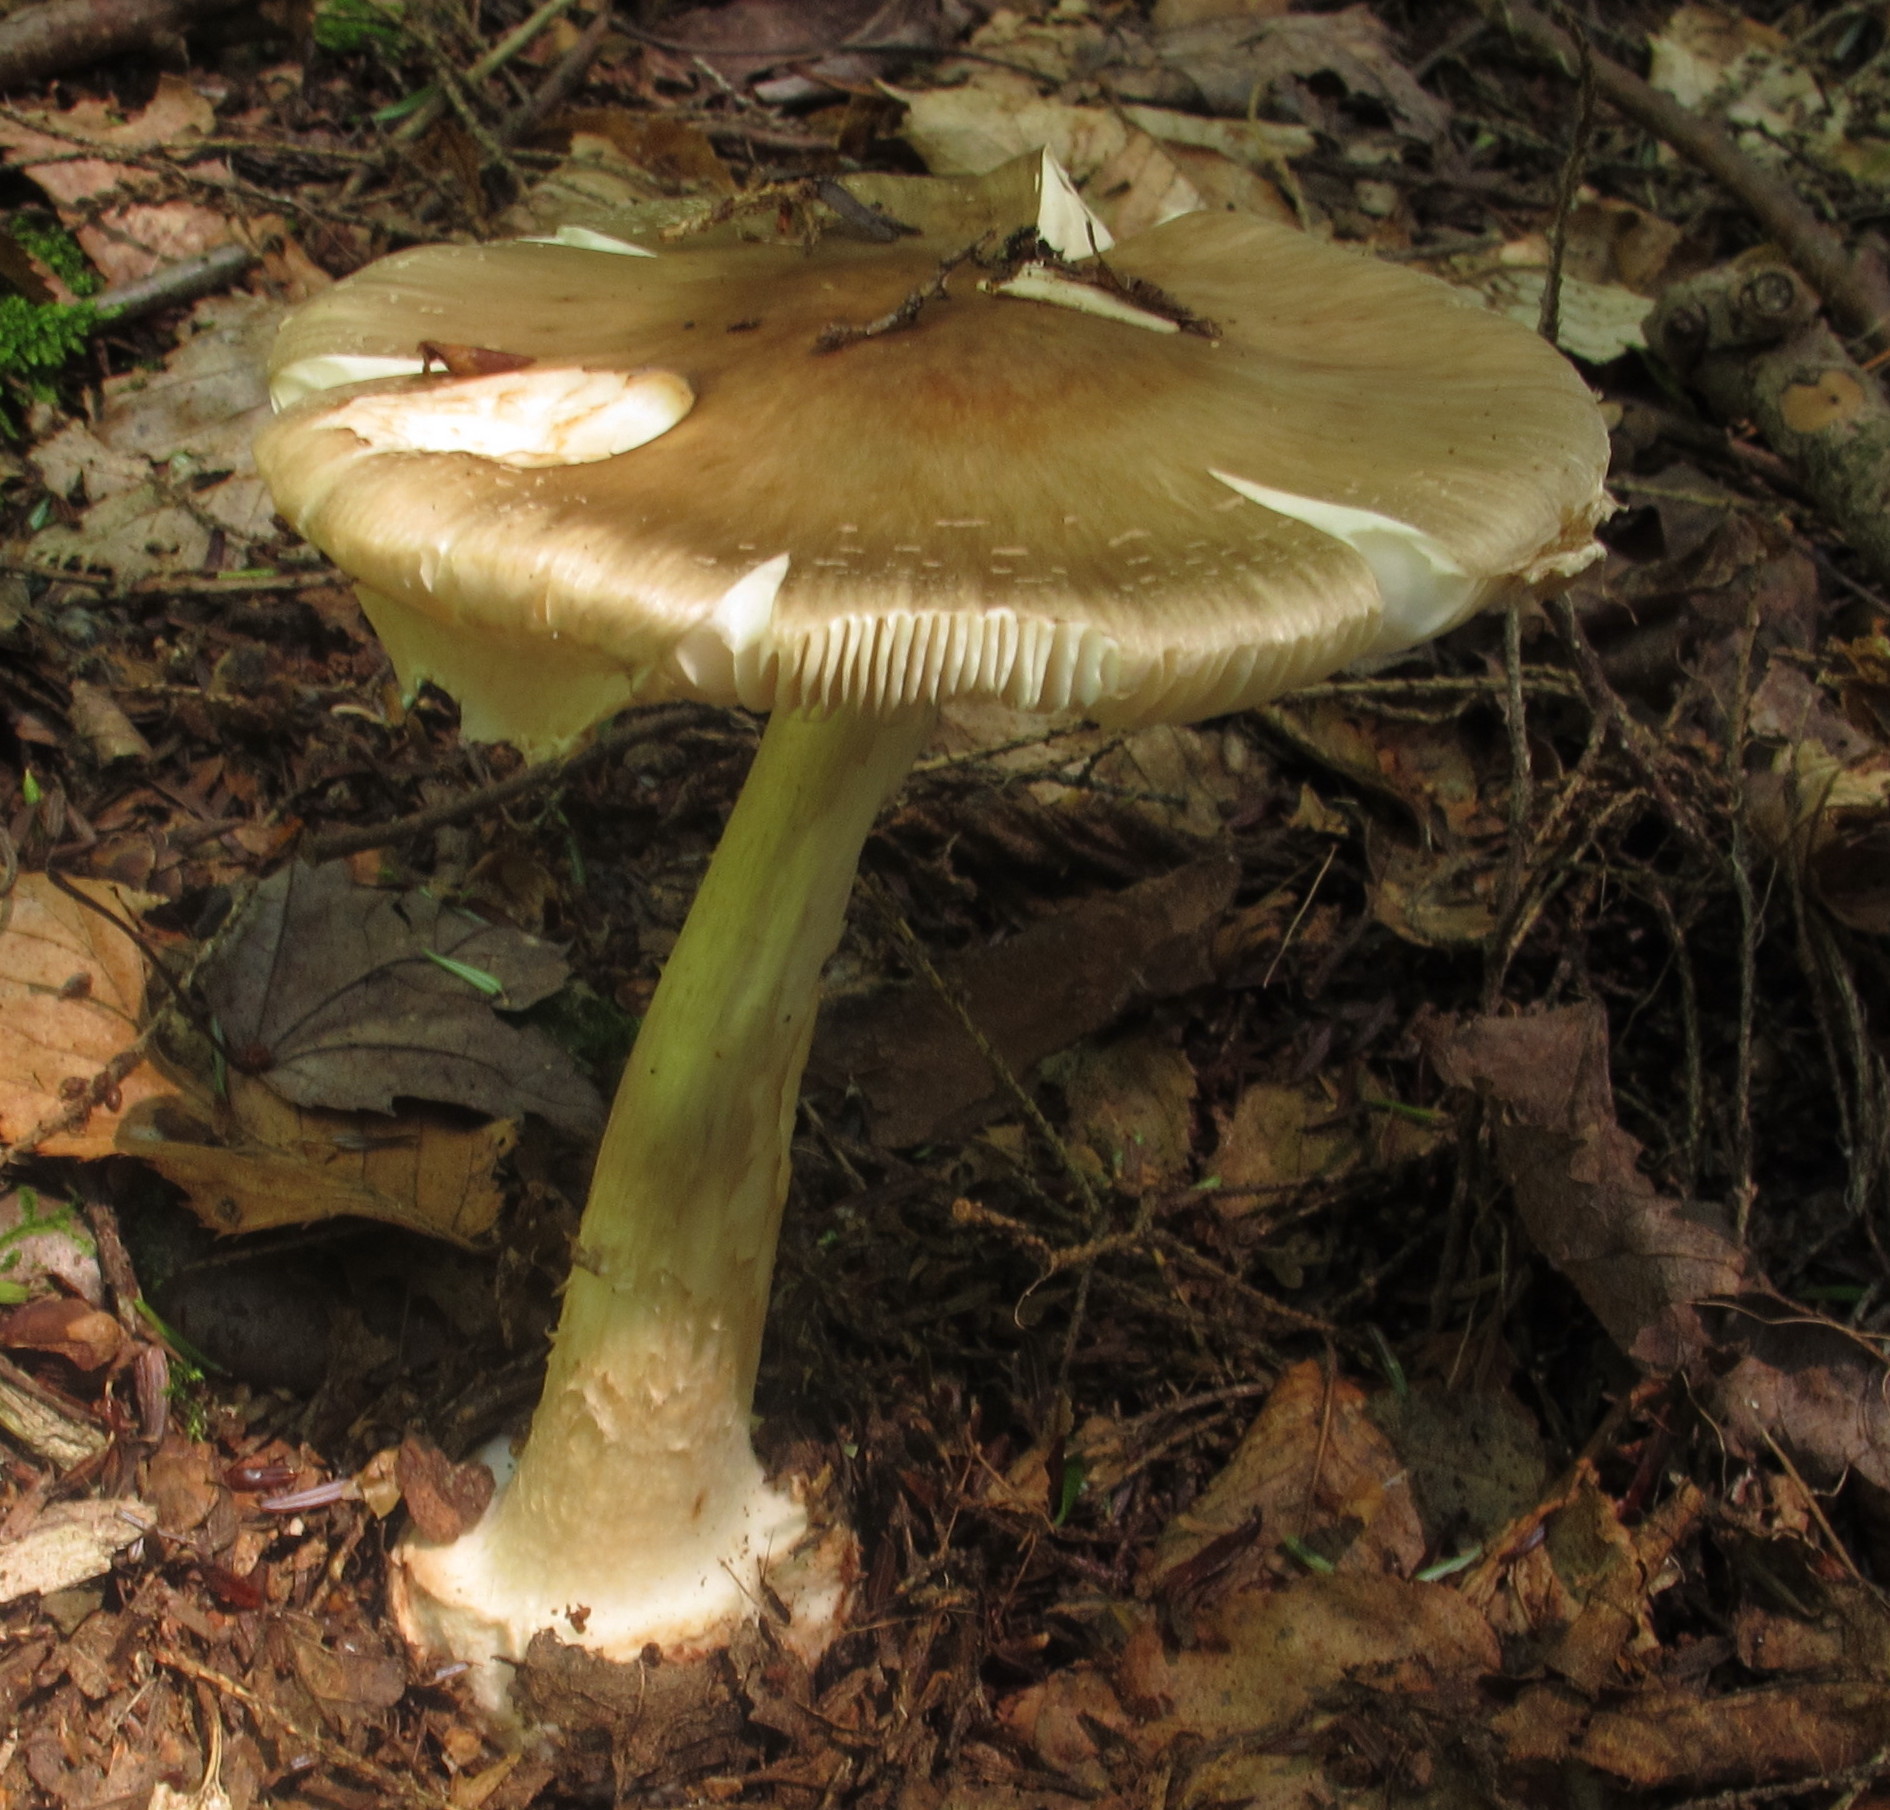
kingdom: Fungi
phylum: Basidiomycota
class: Agaricomycetes
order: Agaricales
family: Amanitaceae
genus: Amanita
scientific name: Amanita brunnescens
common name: Brown american star-footed amanita
